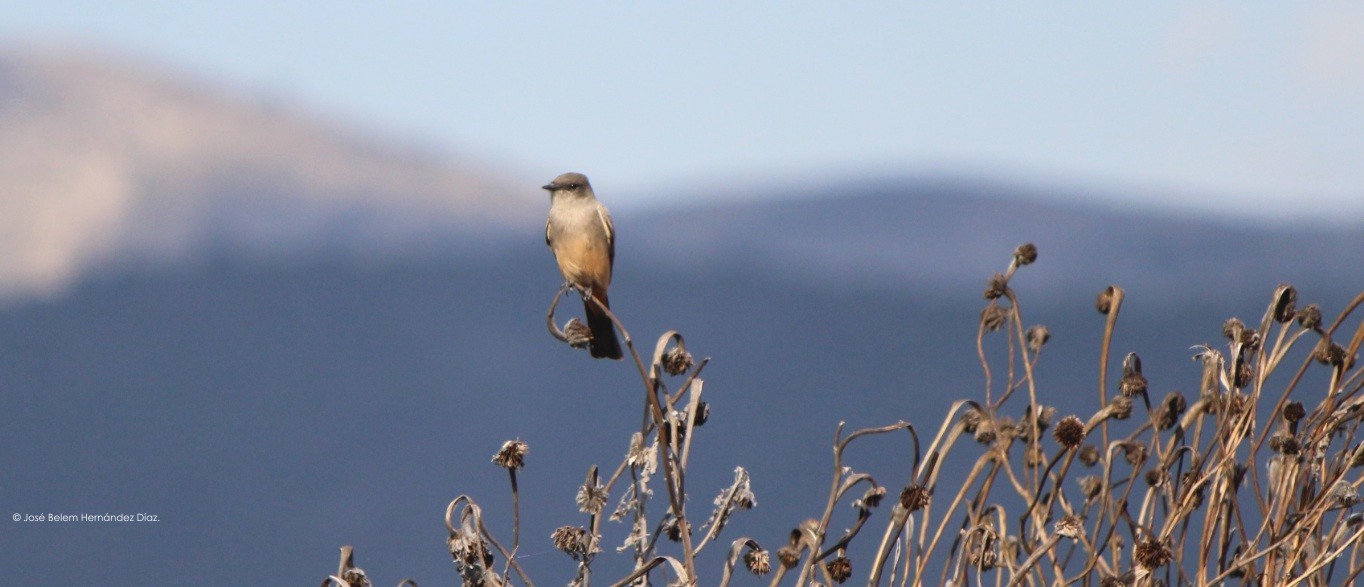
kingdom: Animalia
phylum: Chordata
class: Aves
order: Passeriformes
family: Tyrannidae
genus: Sayornis
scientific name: Sayornis saya
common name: Say's phoebe
